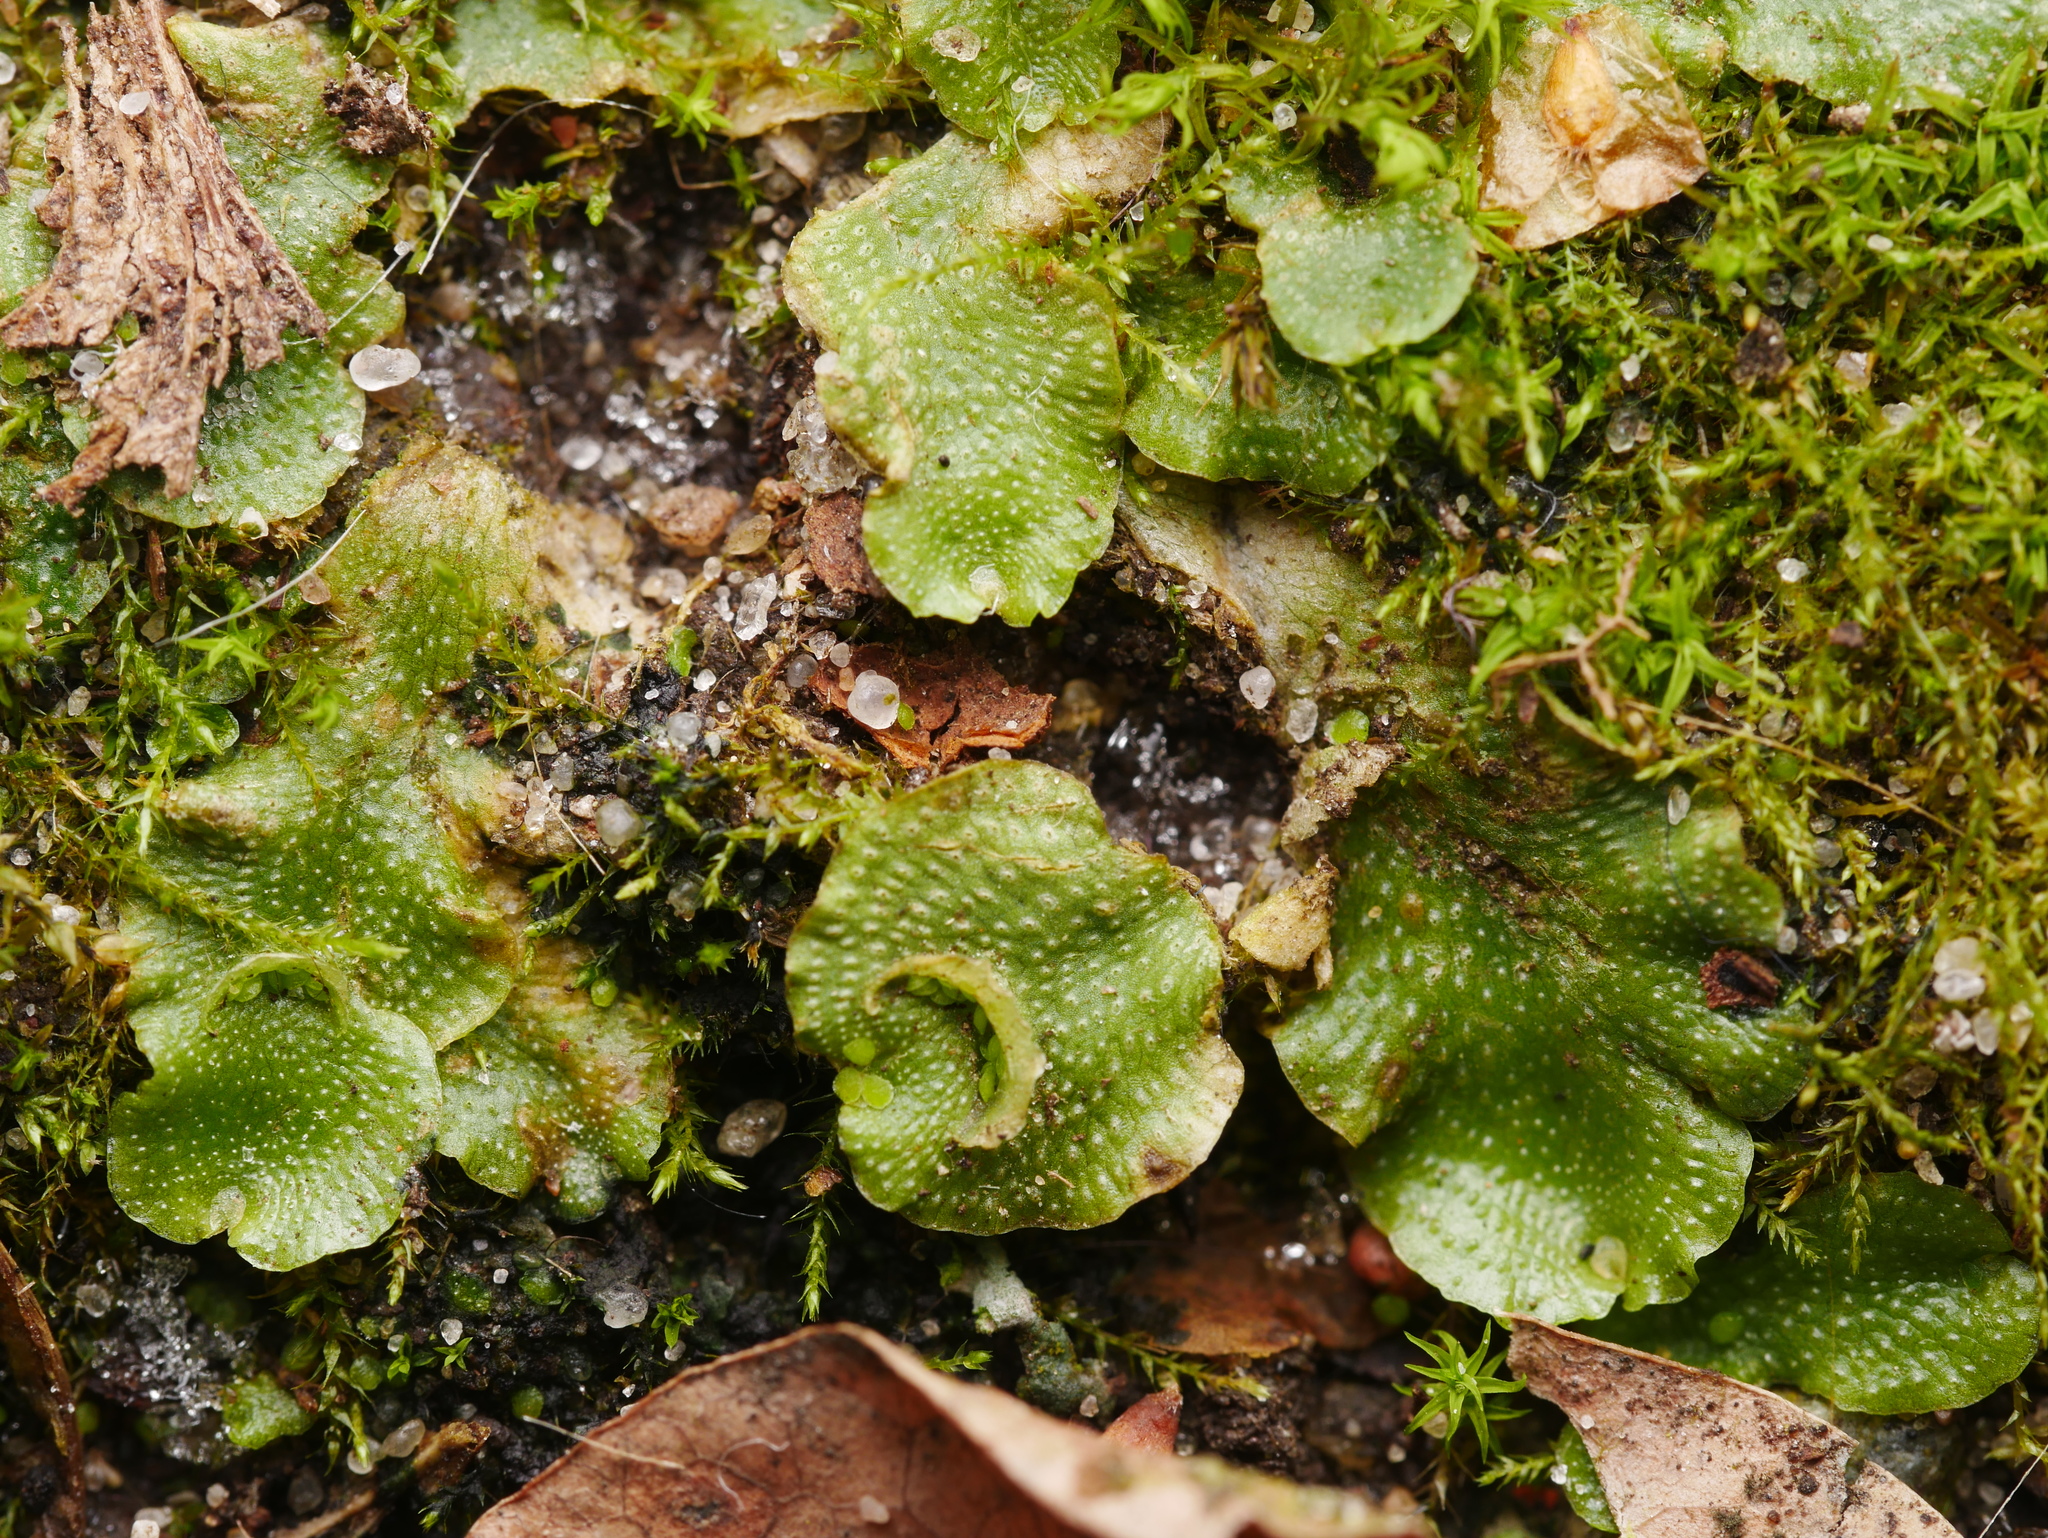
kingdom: Plantae
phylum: Marchantiophyta
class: Marchantiopsida
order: Lunulariales
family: Lunulariaceae
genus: Lunularia
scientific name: Lunularia cruciata
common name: Crescent-cup liverwort
